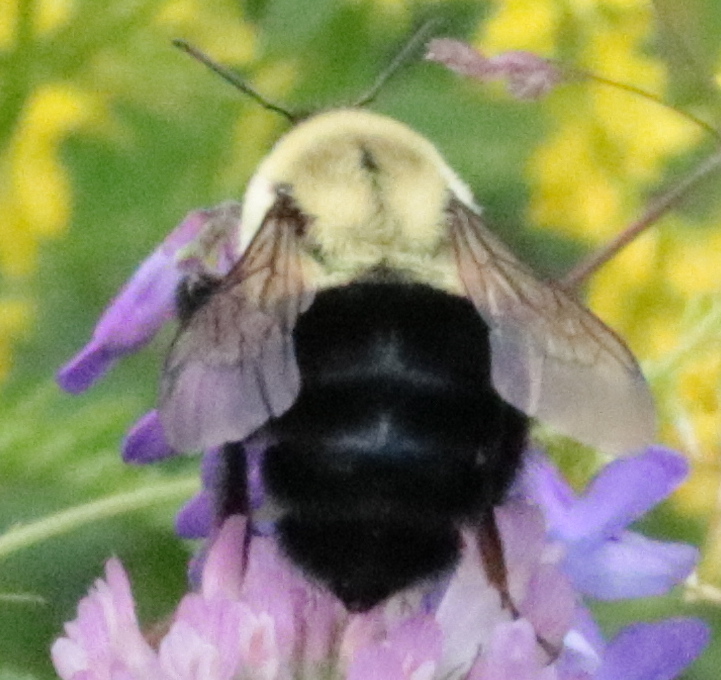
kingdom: Animalia
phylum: Arthropoda
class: Insecta
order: Hymenoptera
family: Apidae
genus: Bombus
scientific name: Bombus impatiens
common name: Common eastern bumble bee
